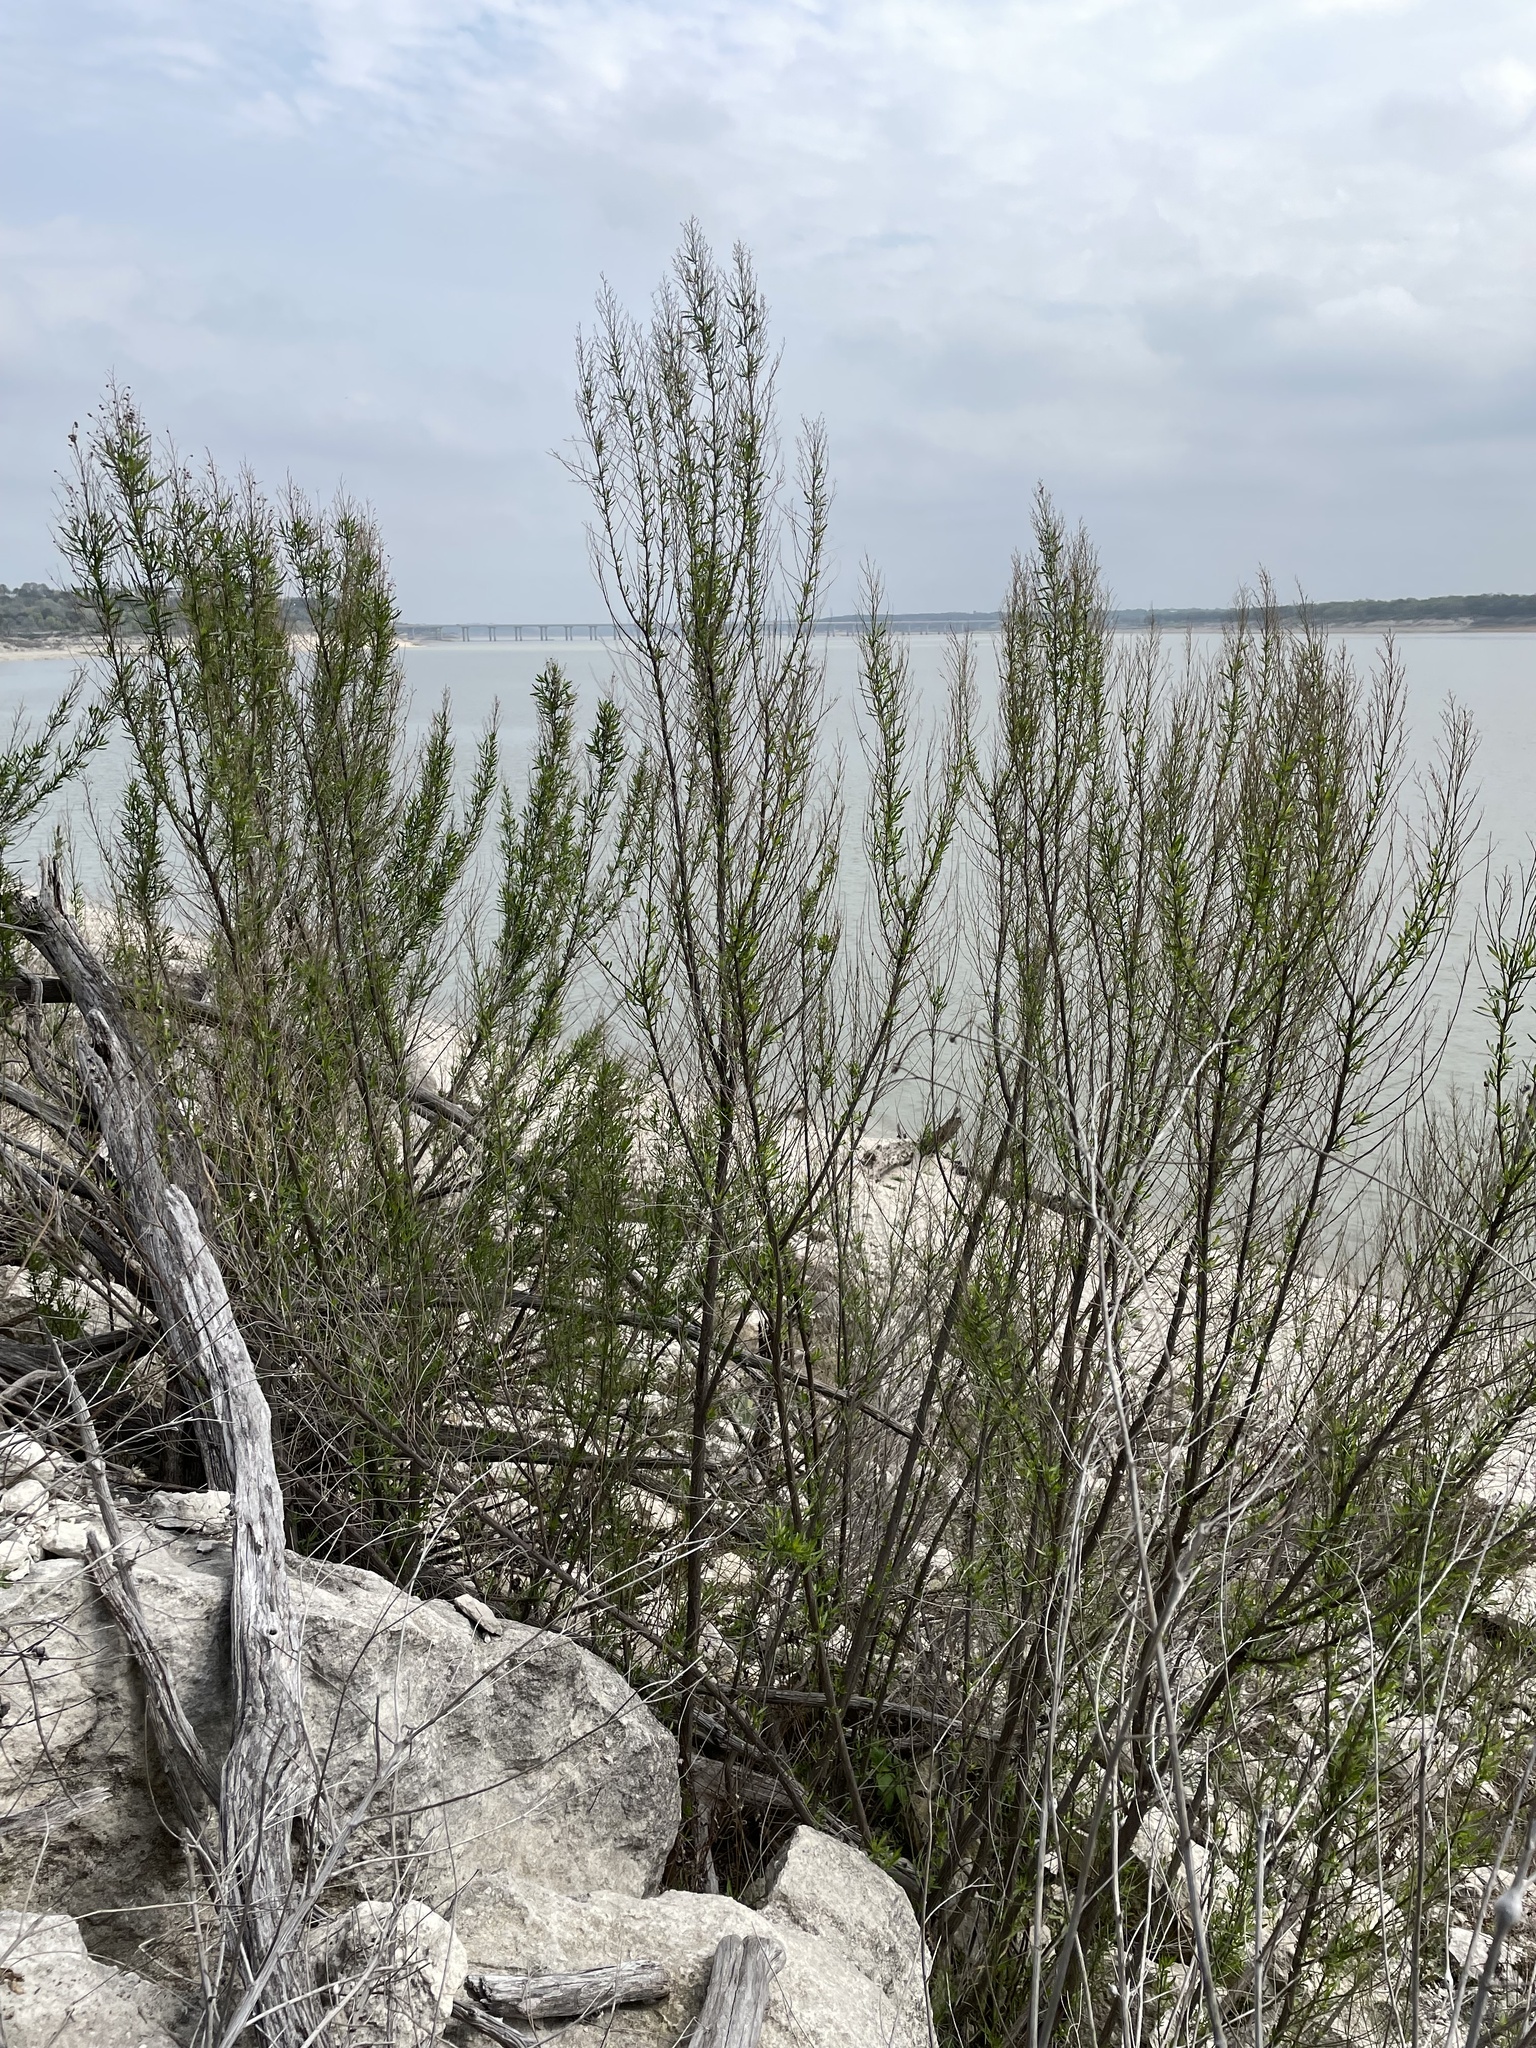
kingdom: Plantae
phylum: Tracheophyta
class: Magnoliopsida
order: Asterales
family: Asteraceae
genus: Baccharis
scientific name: Baccharis neglecta
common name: Roosevelt-weed
